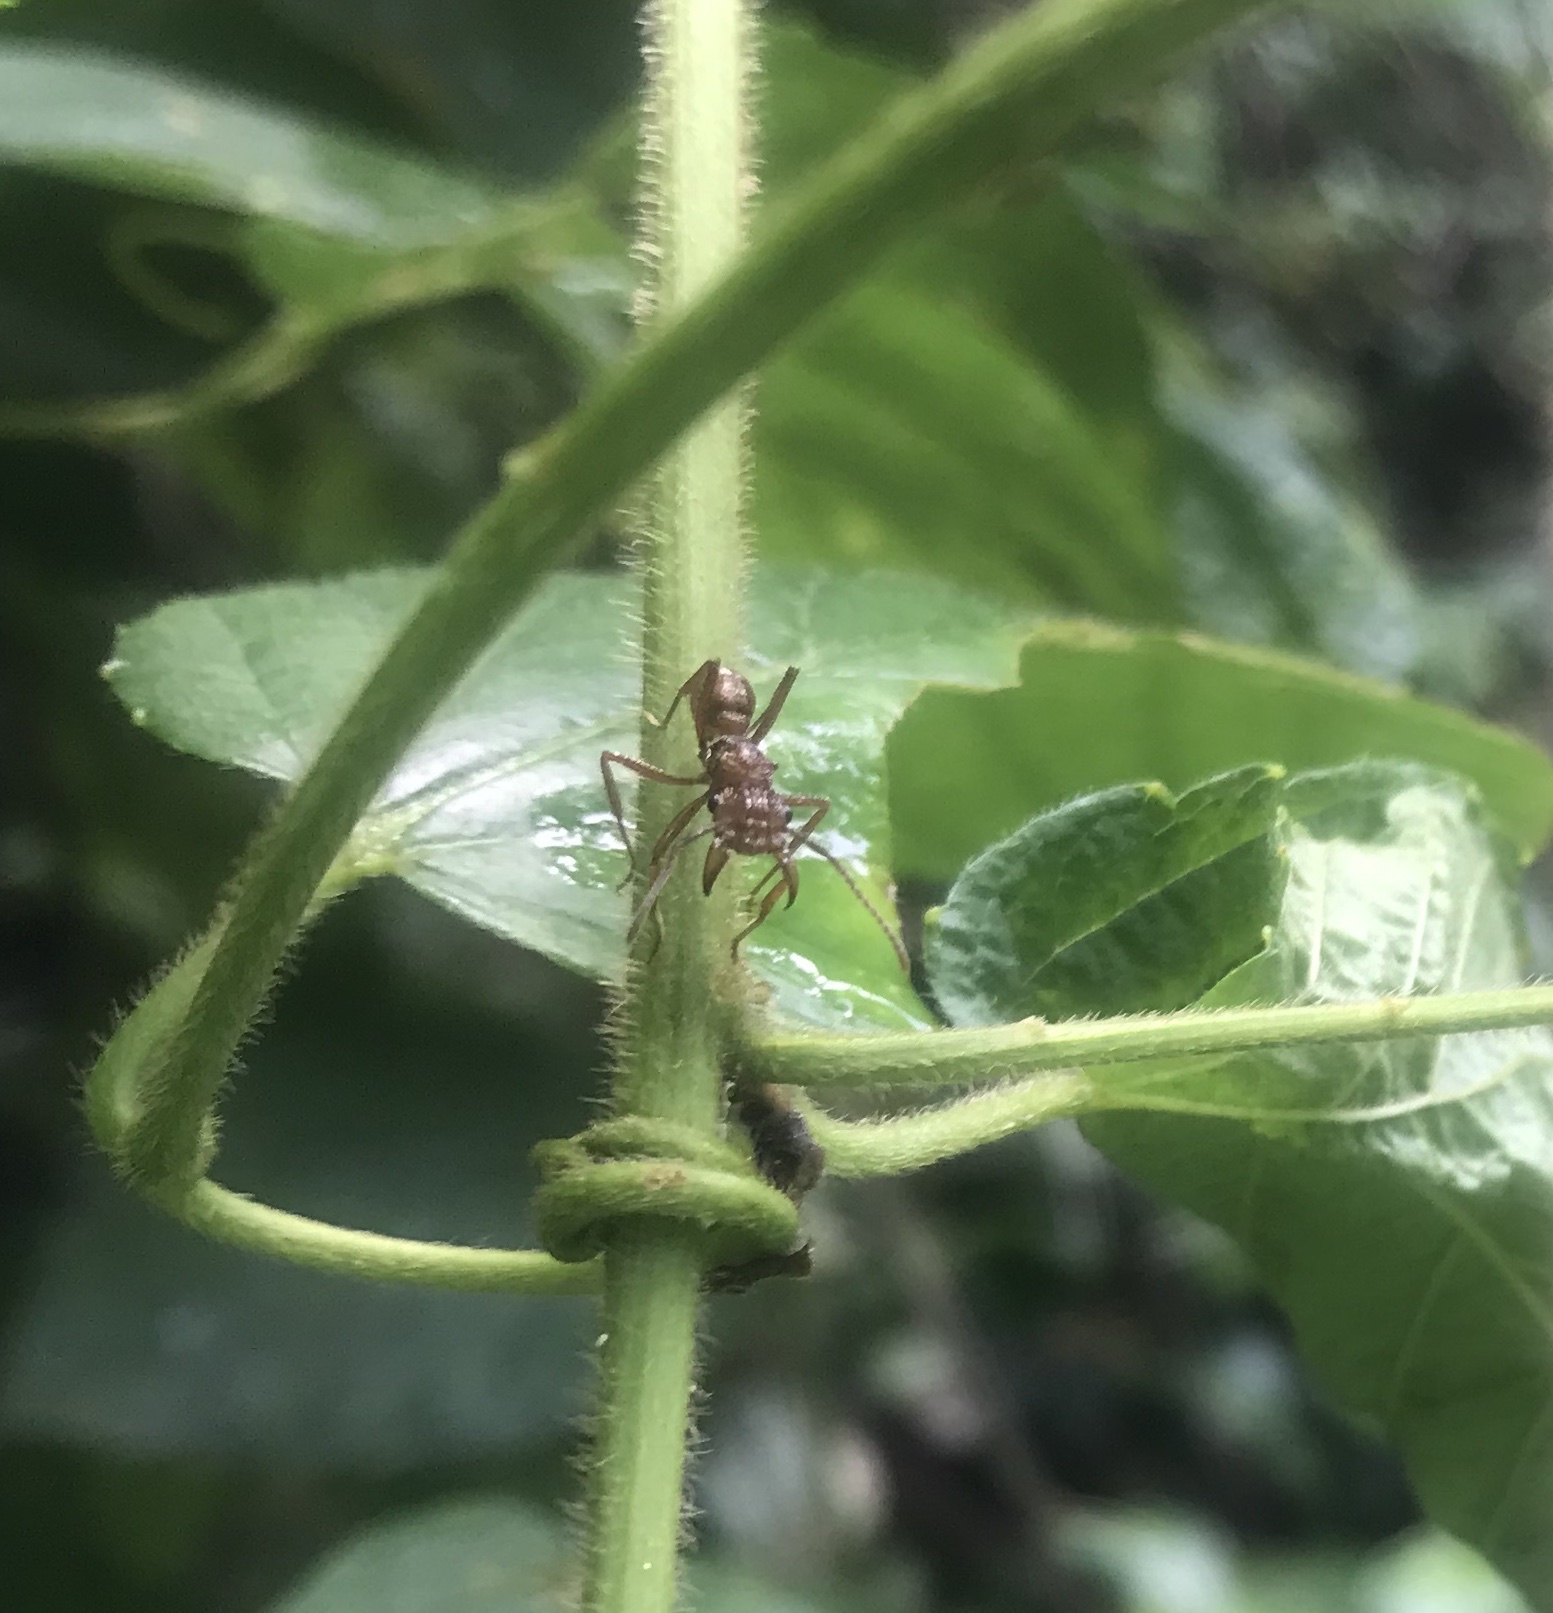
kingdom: Animalia
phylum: Arthropoda
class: Insecta
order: Hymenoptera
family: Formicidae
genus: Ectatomma
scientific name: Ectatomma tuberculatum
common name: Ant
